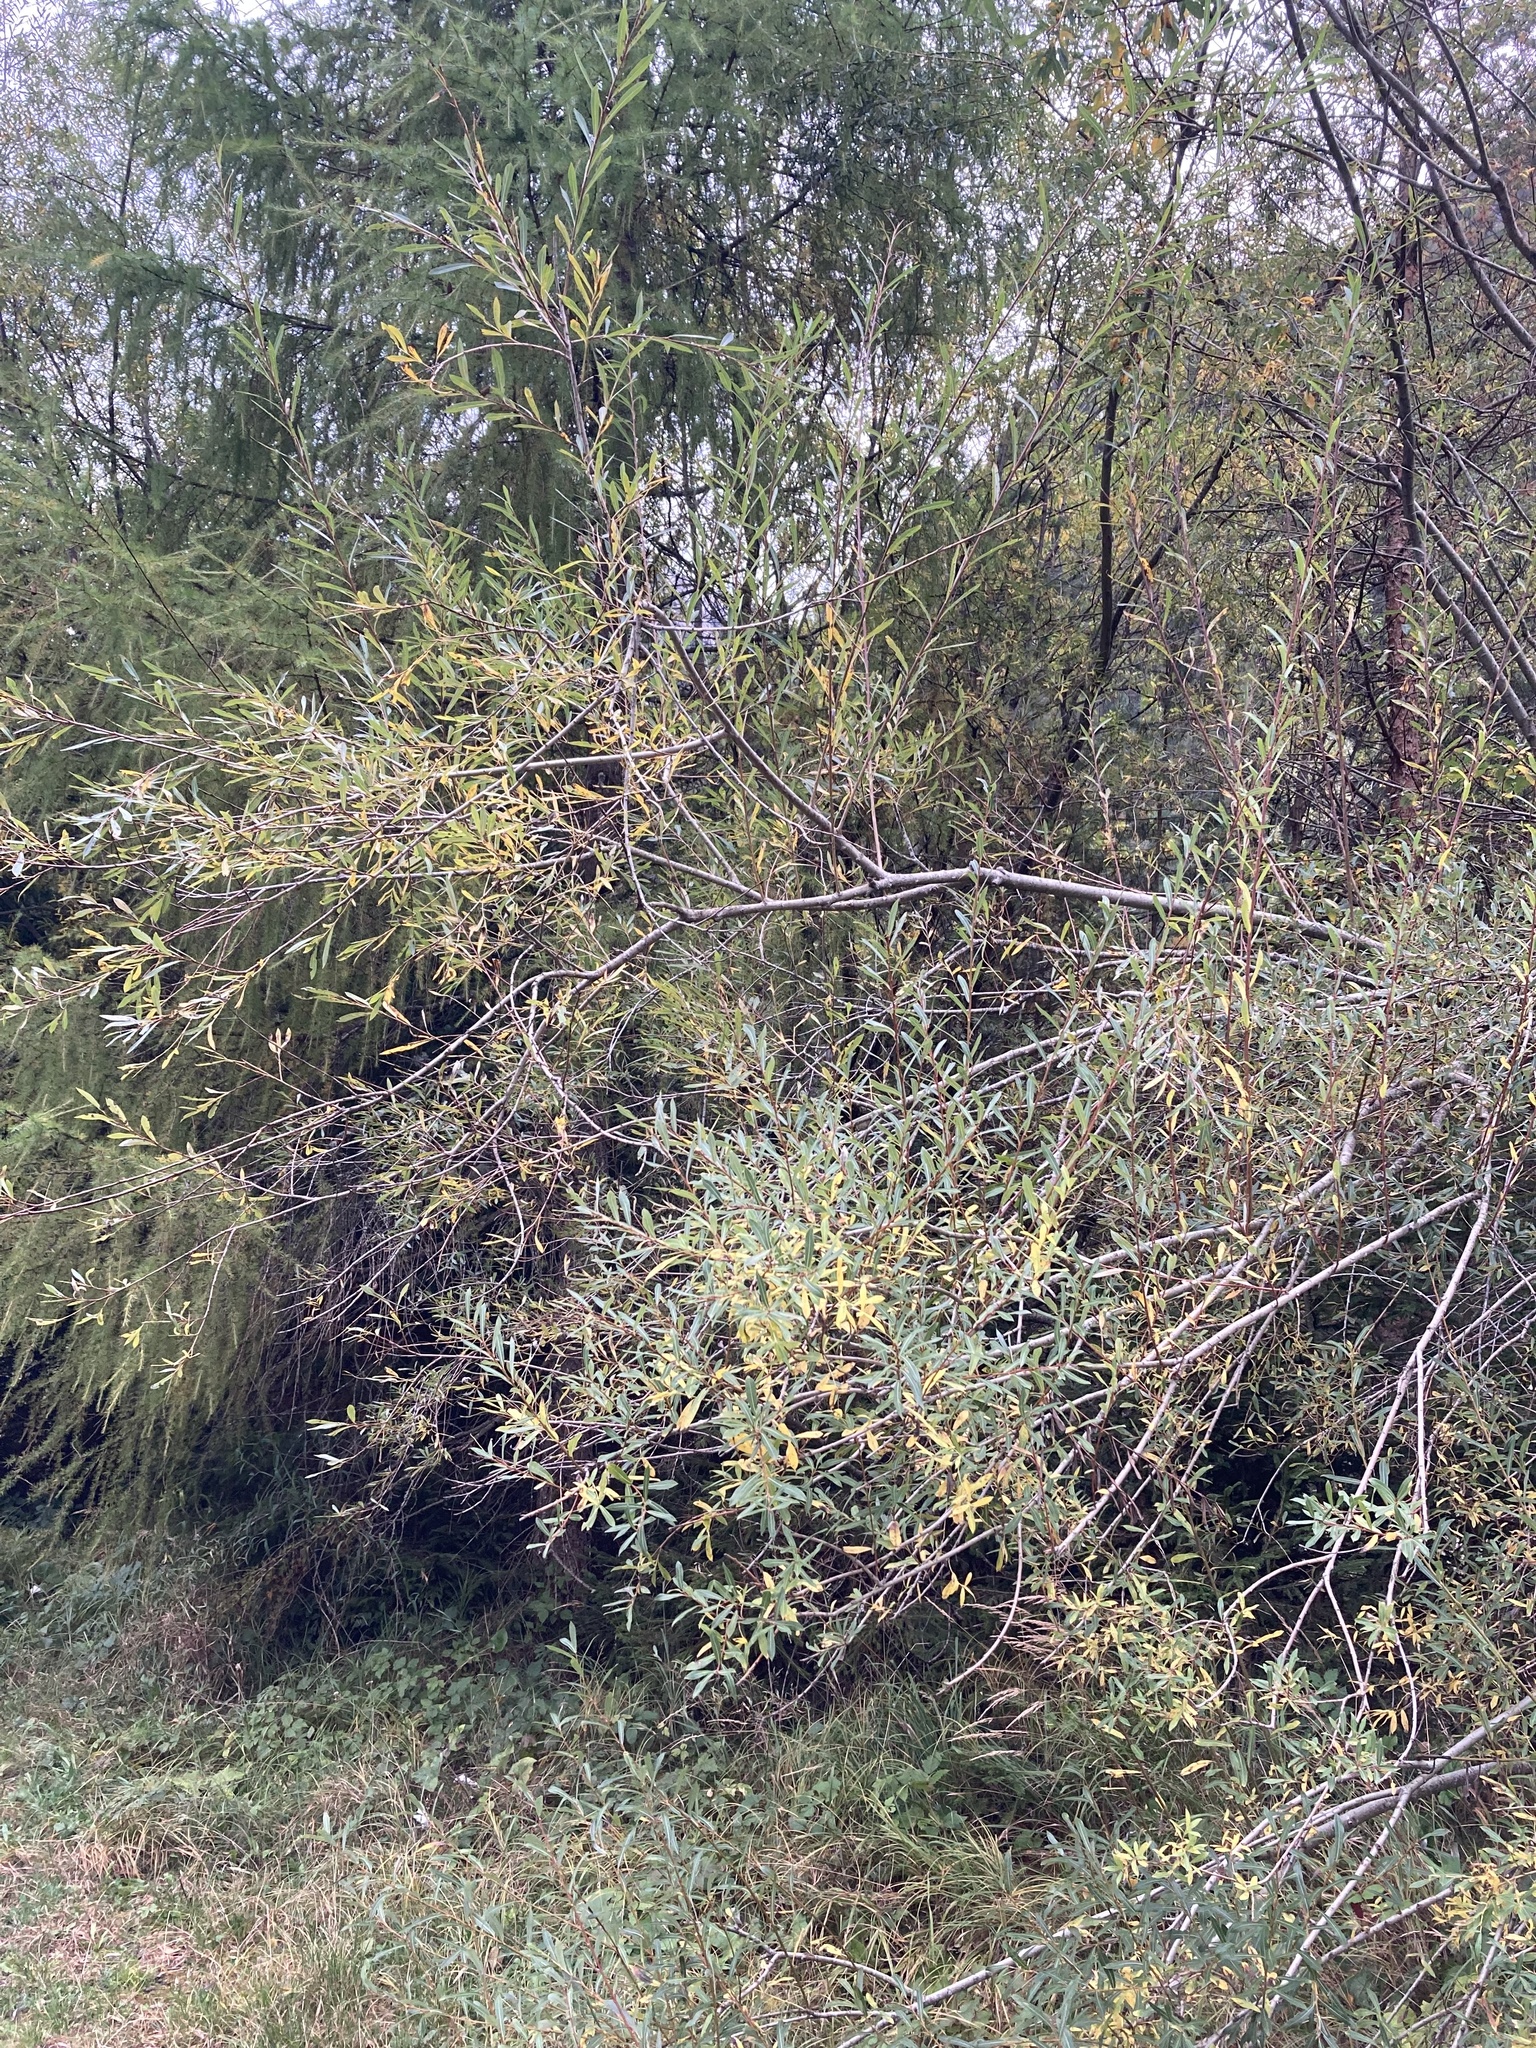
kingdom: Plantae
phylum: Tracheophyta
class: Magnoliopsida
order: Malpighiales
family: Salicaceae
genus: Salix
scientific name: Salix purpurea
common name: Purple willow
